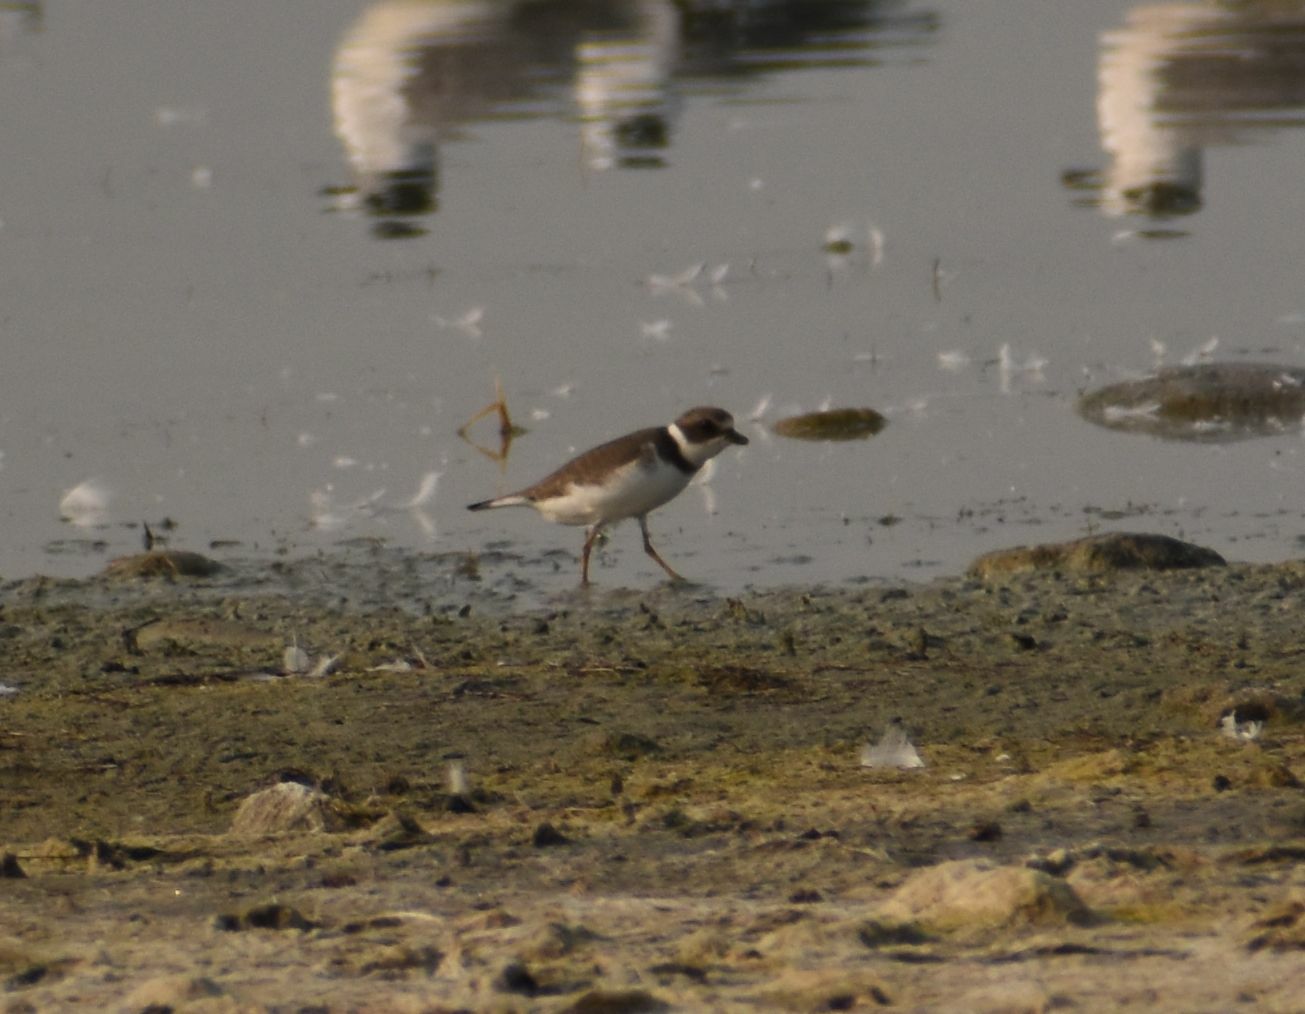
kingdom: Animalia
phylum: Chordata
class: Aves
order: Charadriiformes
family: Charadriidae
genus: Charadrius
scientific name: Charadrius semipalmatus
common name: Semipalmated plover
